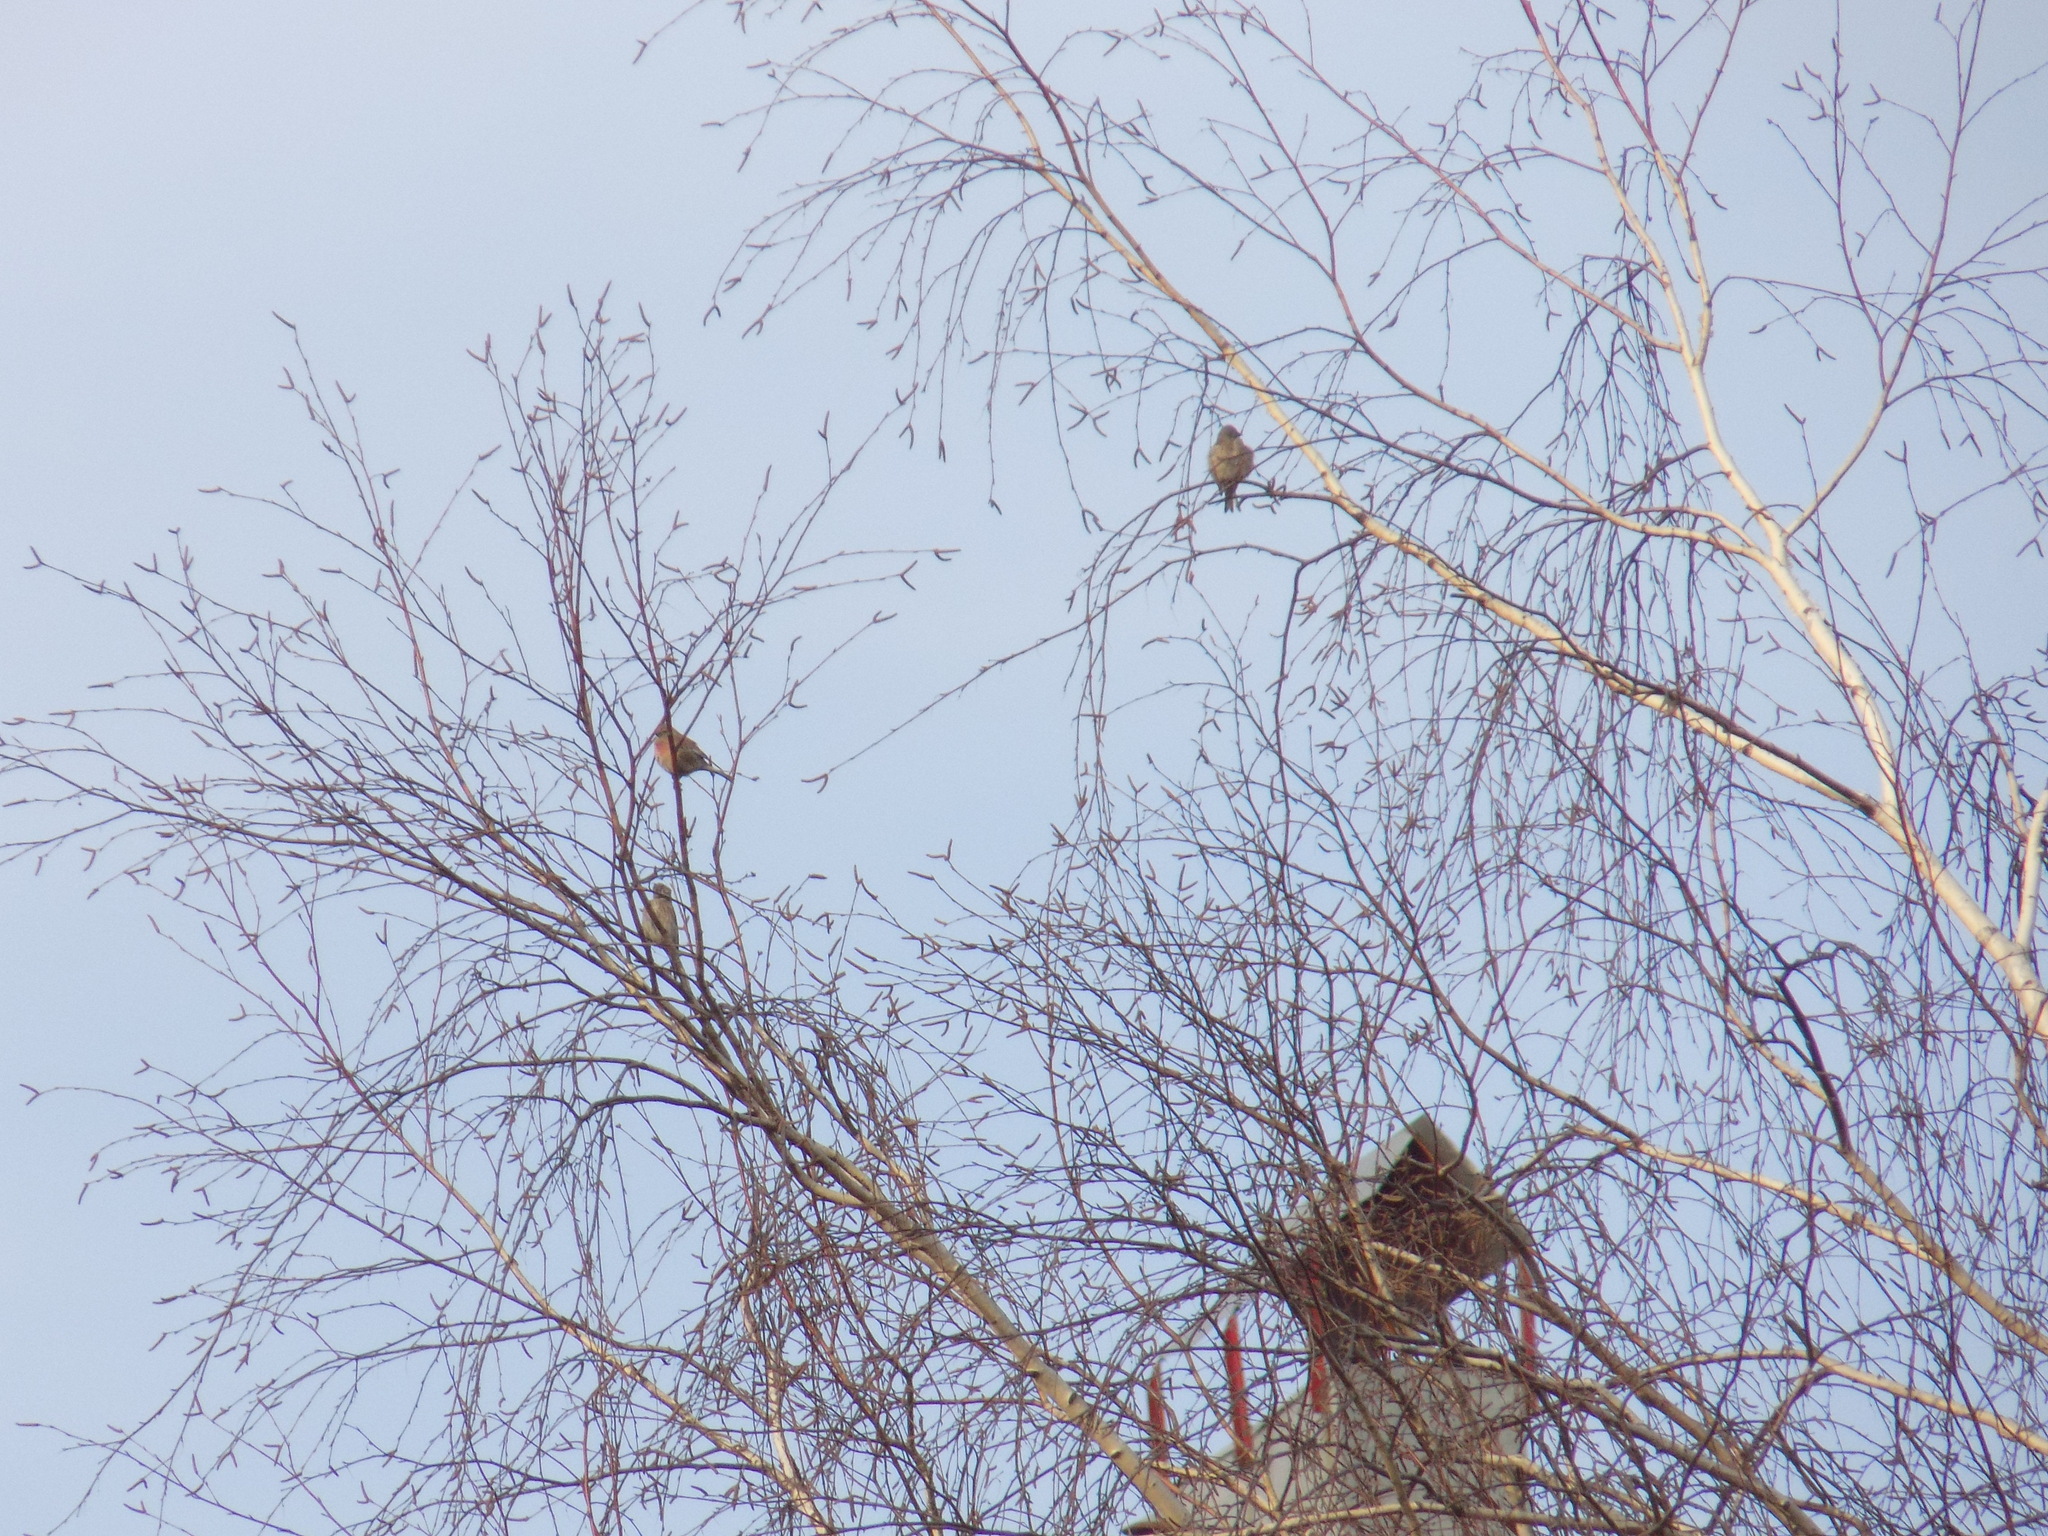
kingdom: Animalia
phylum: Chordata
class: Aves
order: Passeriformes
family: Fringillidae
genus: Linaria
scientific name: Linaria cannabina
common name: Common linnet
